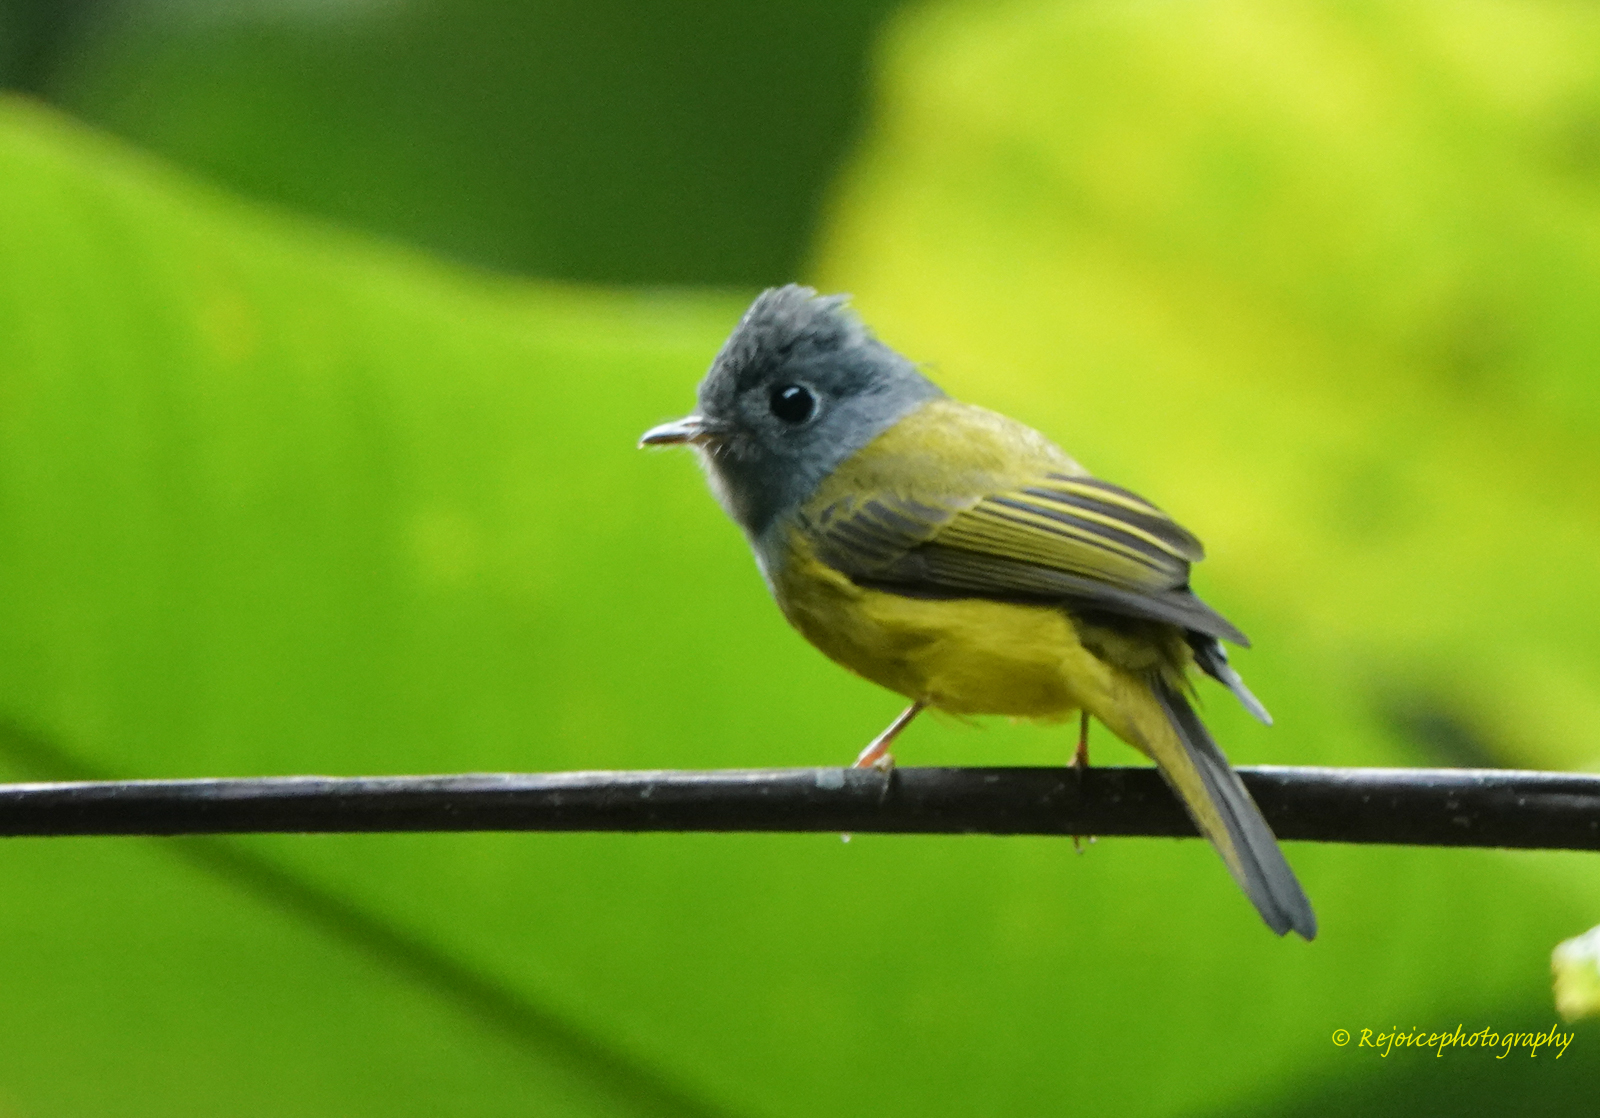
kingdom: Animalia
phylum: Chordata
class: Aves
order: Passeriformes
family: Stenostiridae
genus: Culicicapa
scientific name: Culicicapa ceylonensis
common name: Grey-headed canary-flycatcher
